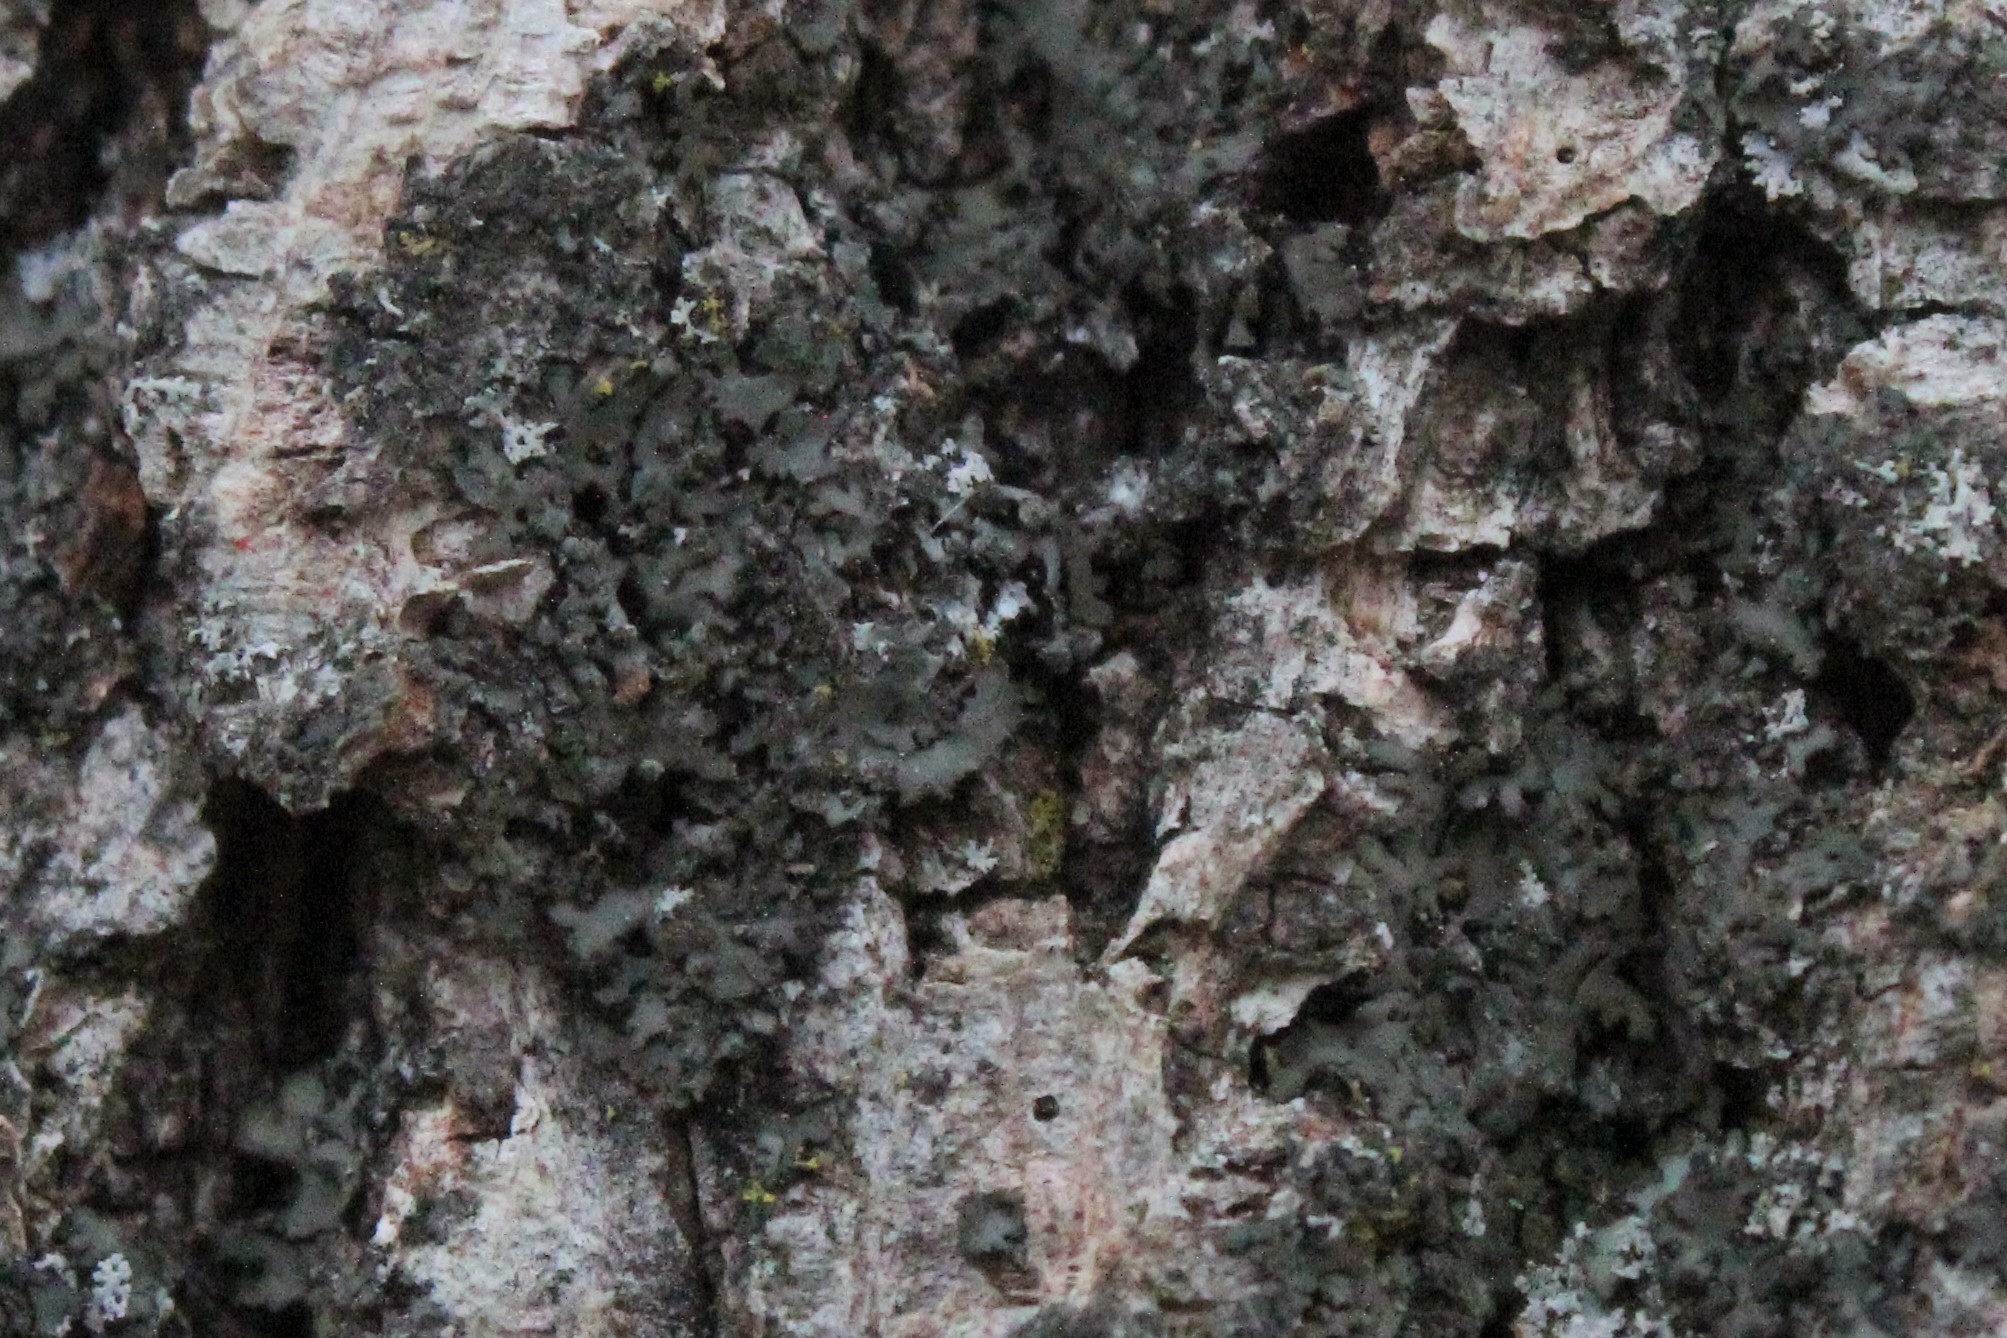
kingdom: Fungi
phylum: Ascomycota
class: Lecanoromycetes
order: Caliciales
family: Physciaceae
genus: Phaeophyscia
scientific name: Phaeophyscia rubropulchra
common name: Orange-cored shadow lichen
